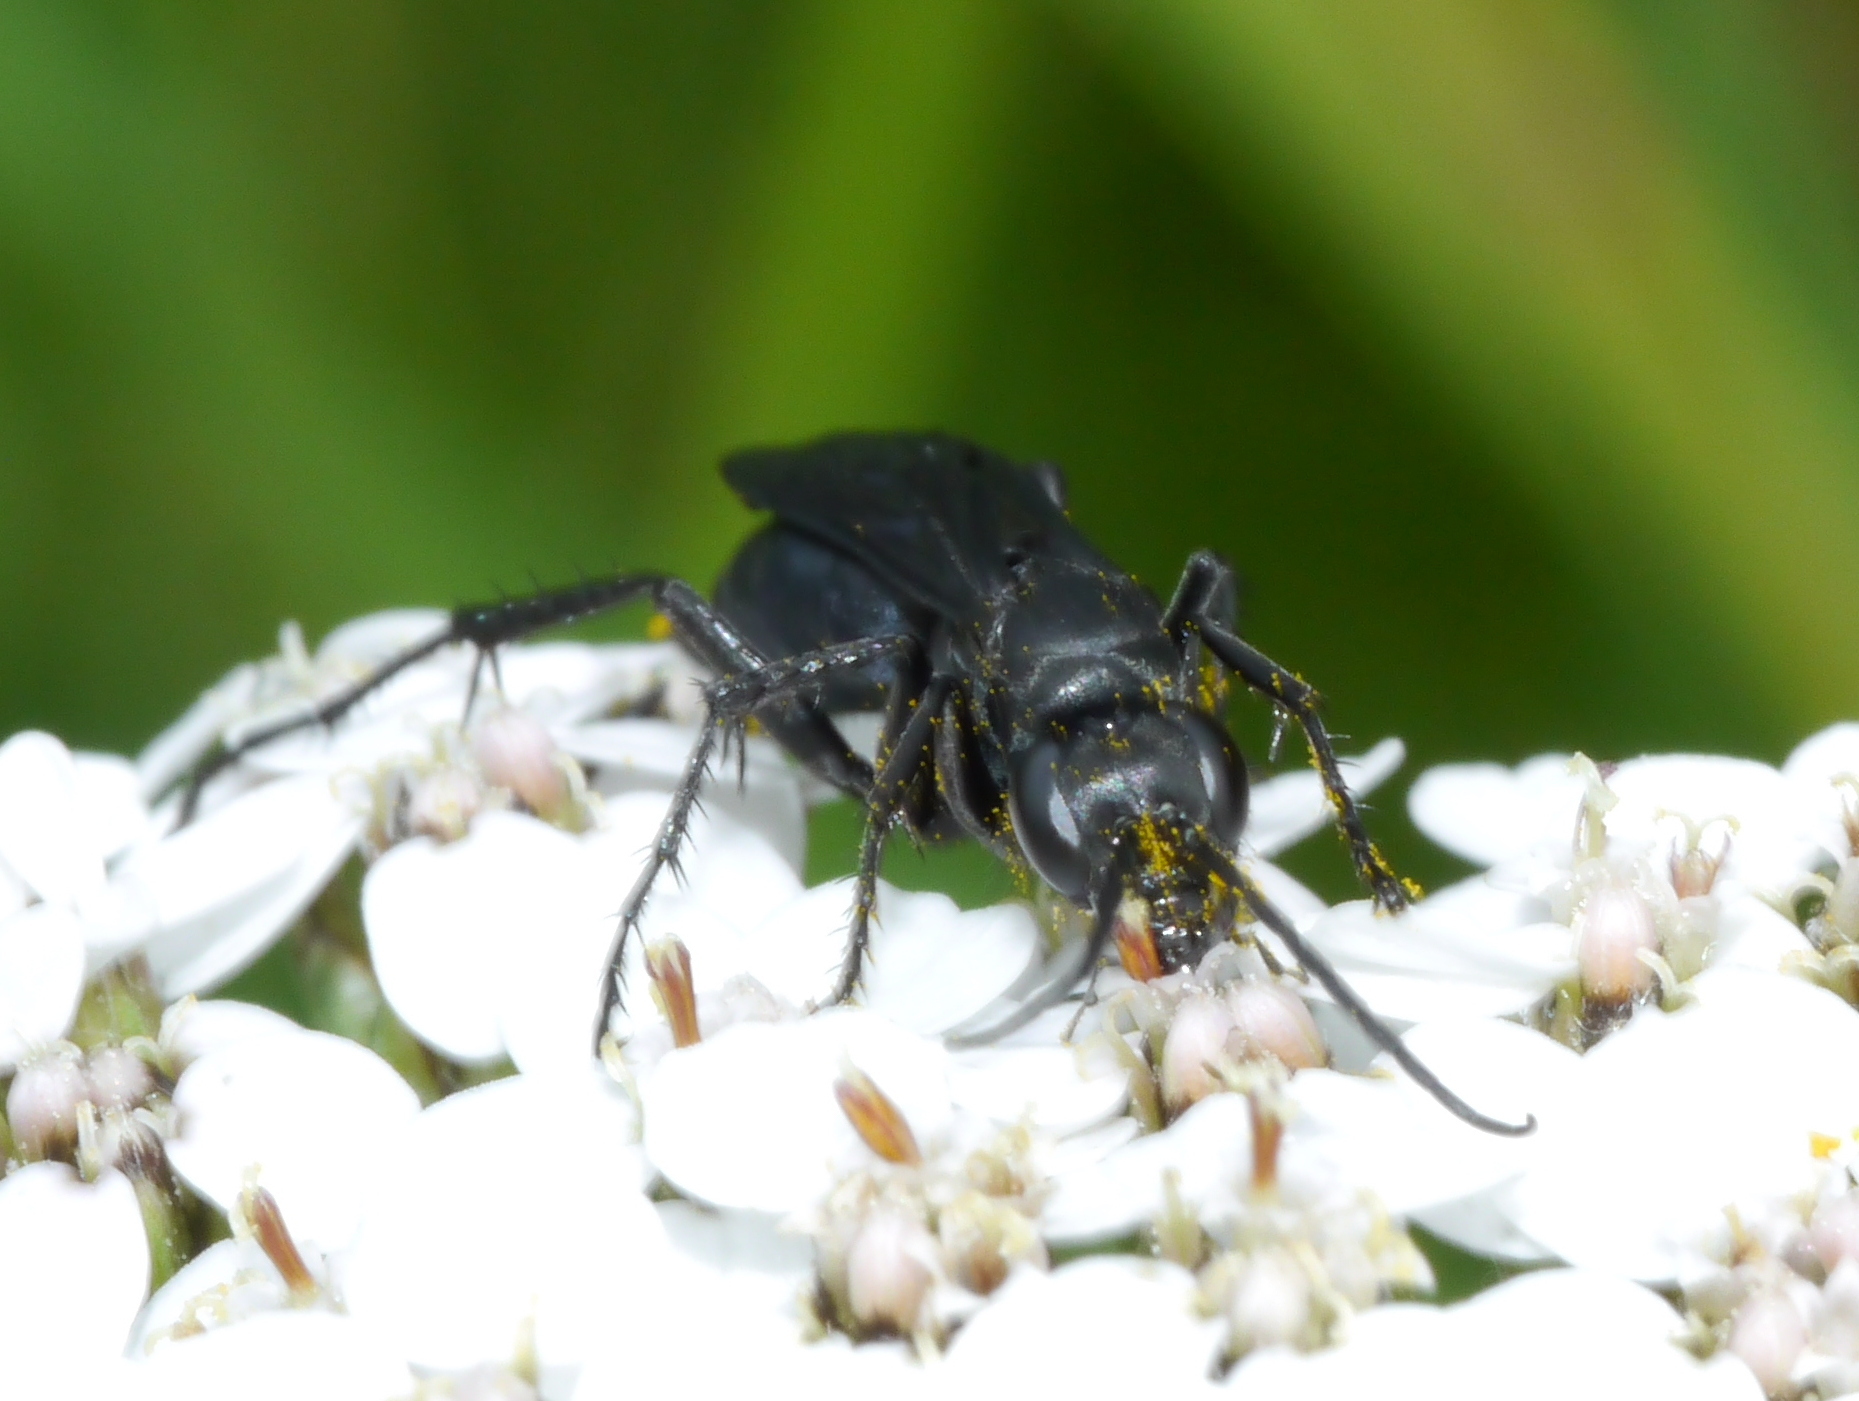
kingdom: Animalia
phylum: Arthropoda
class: Insecta
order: Hymenoptera
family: Pompilidae
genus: Anoplius
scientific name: Anoplius tenebrosus
